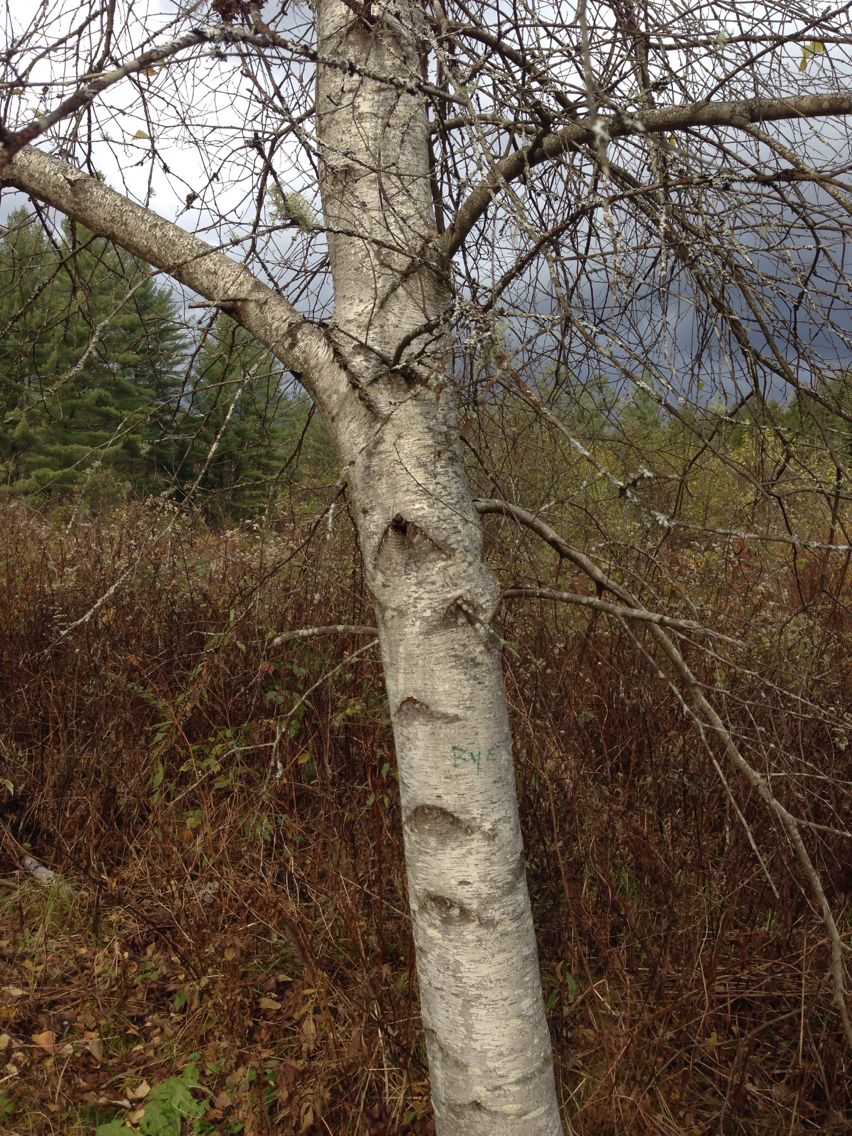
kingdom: Plantae
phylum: Tracheophyta
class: Magnoliopsida
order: Fagales
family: Betulaceae
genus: Betula
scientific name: Betula populifolia
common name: Fire birch
